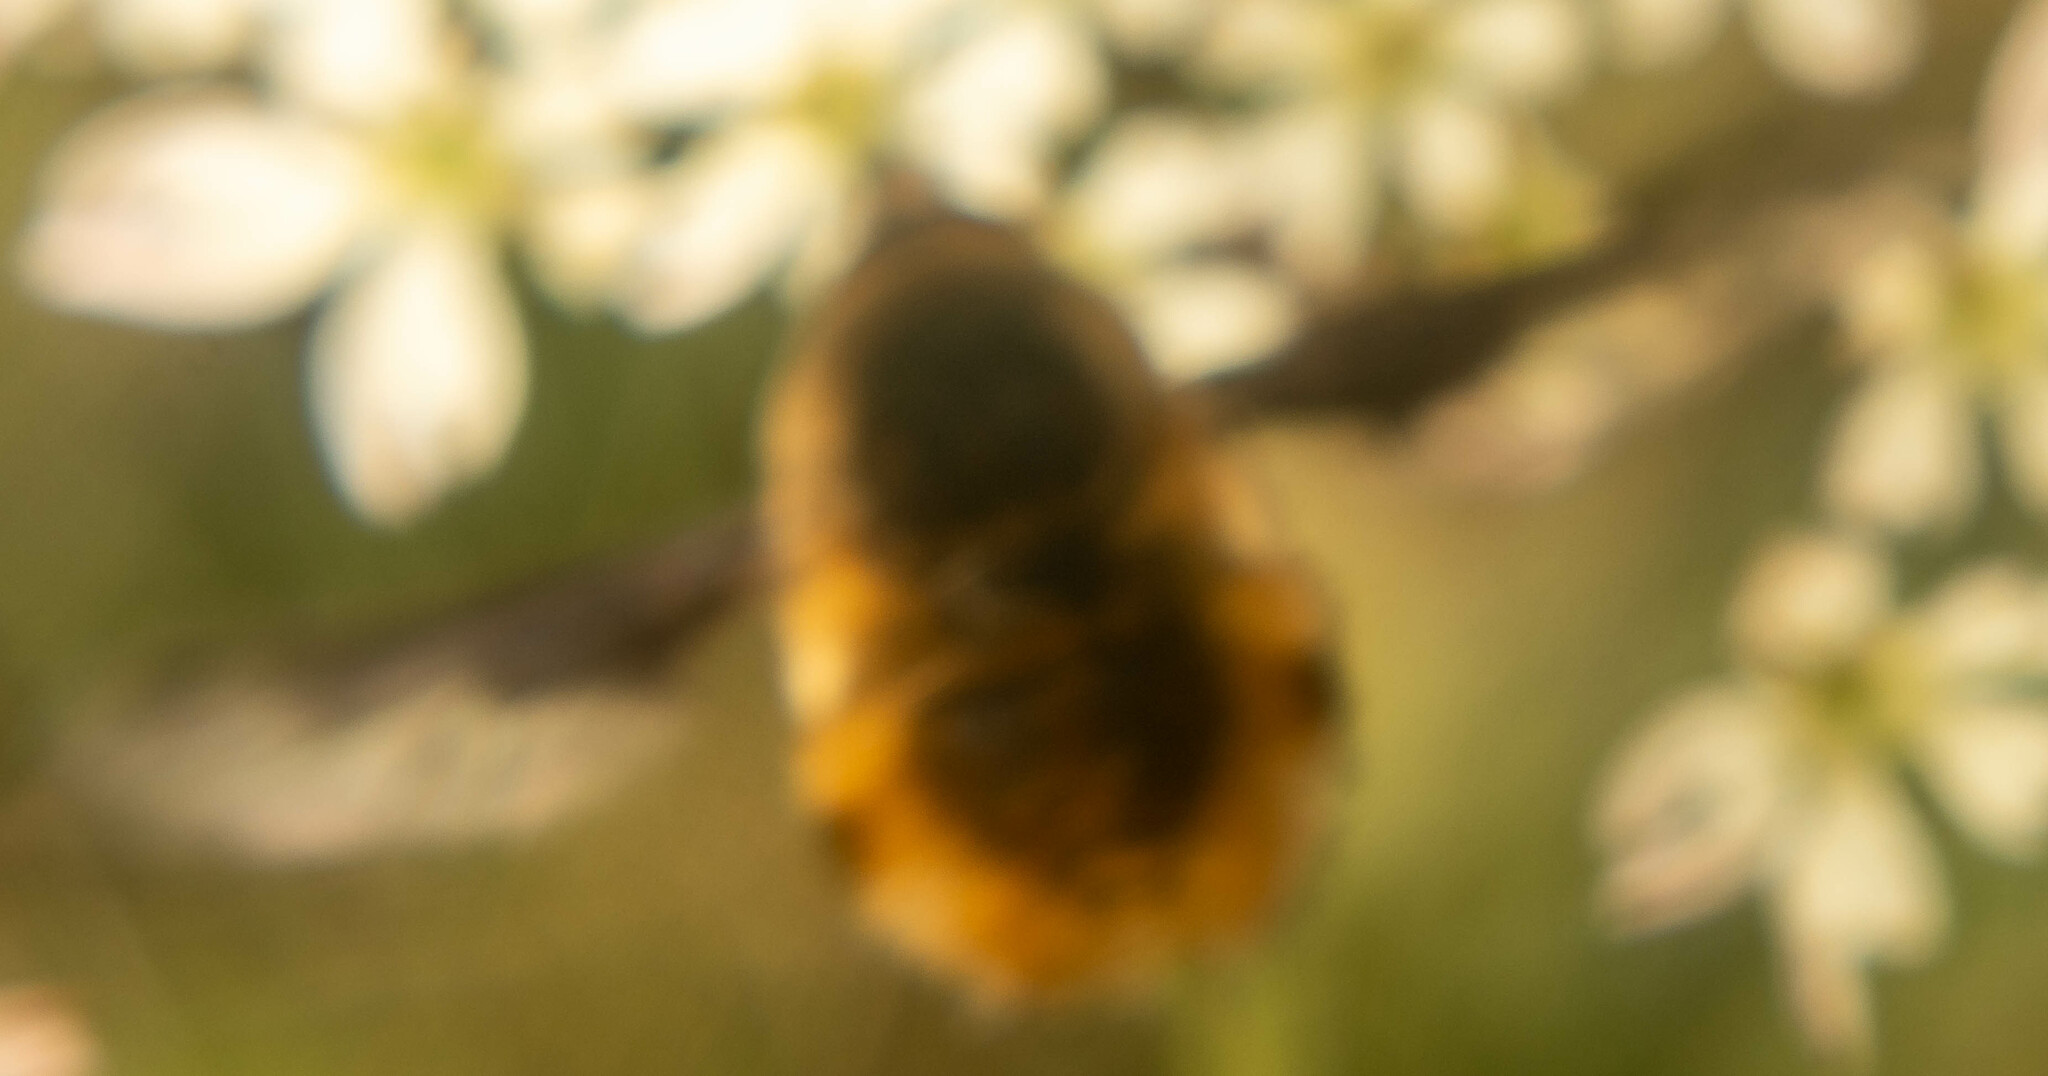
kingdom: Animalia
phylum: Arthropoda
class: Insecta
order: Diptera
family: Bombyliidae
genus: Bombylius
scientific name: Bombylius major
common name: Bee fly
